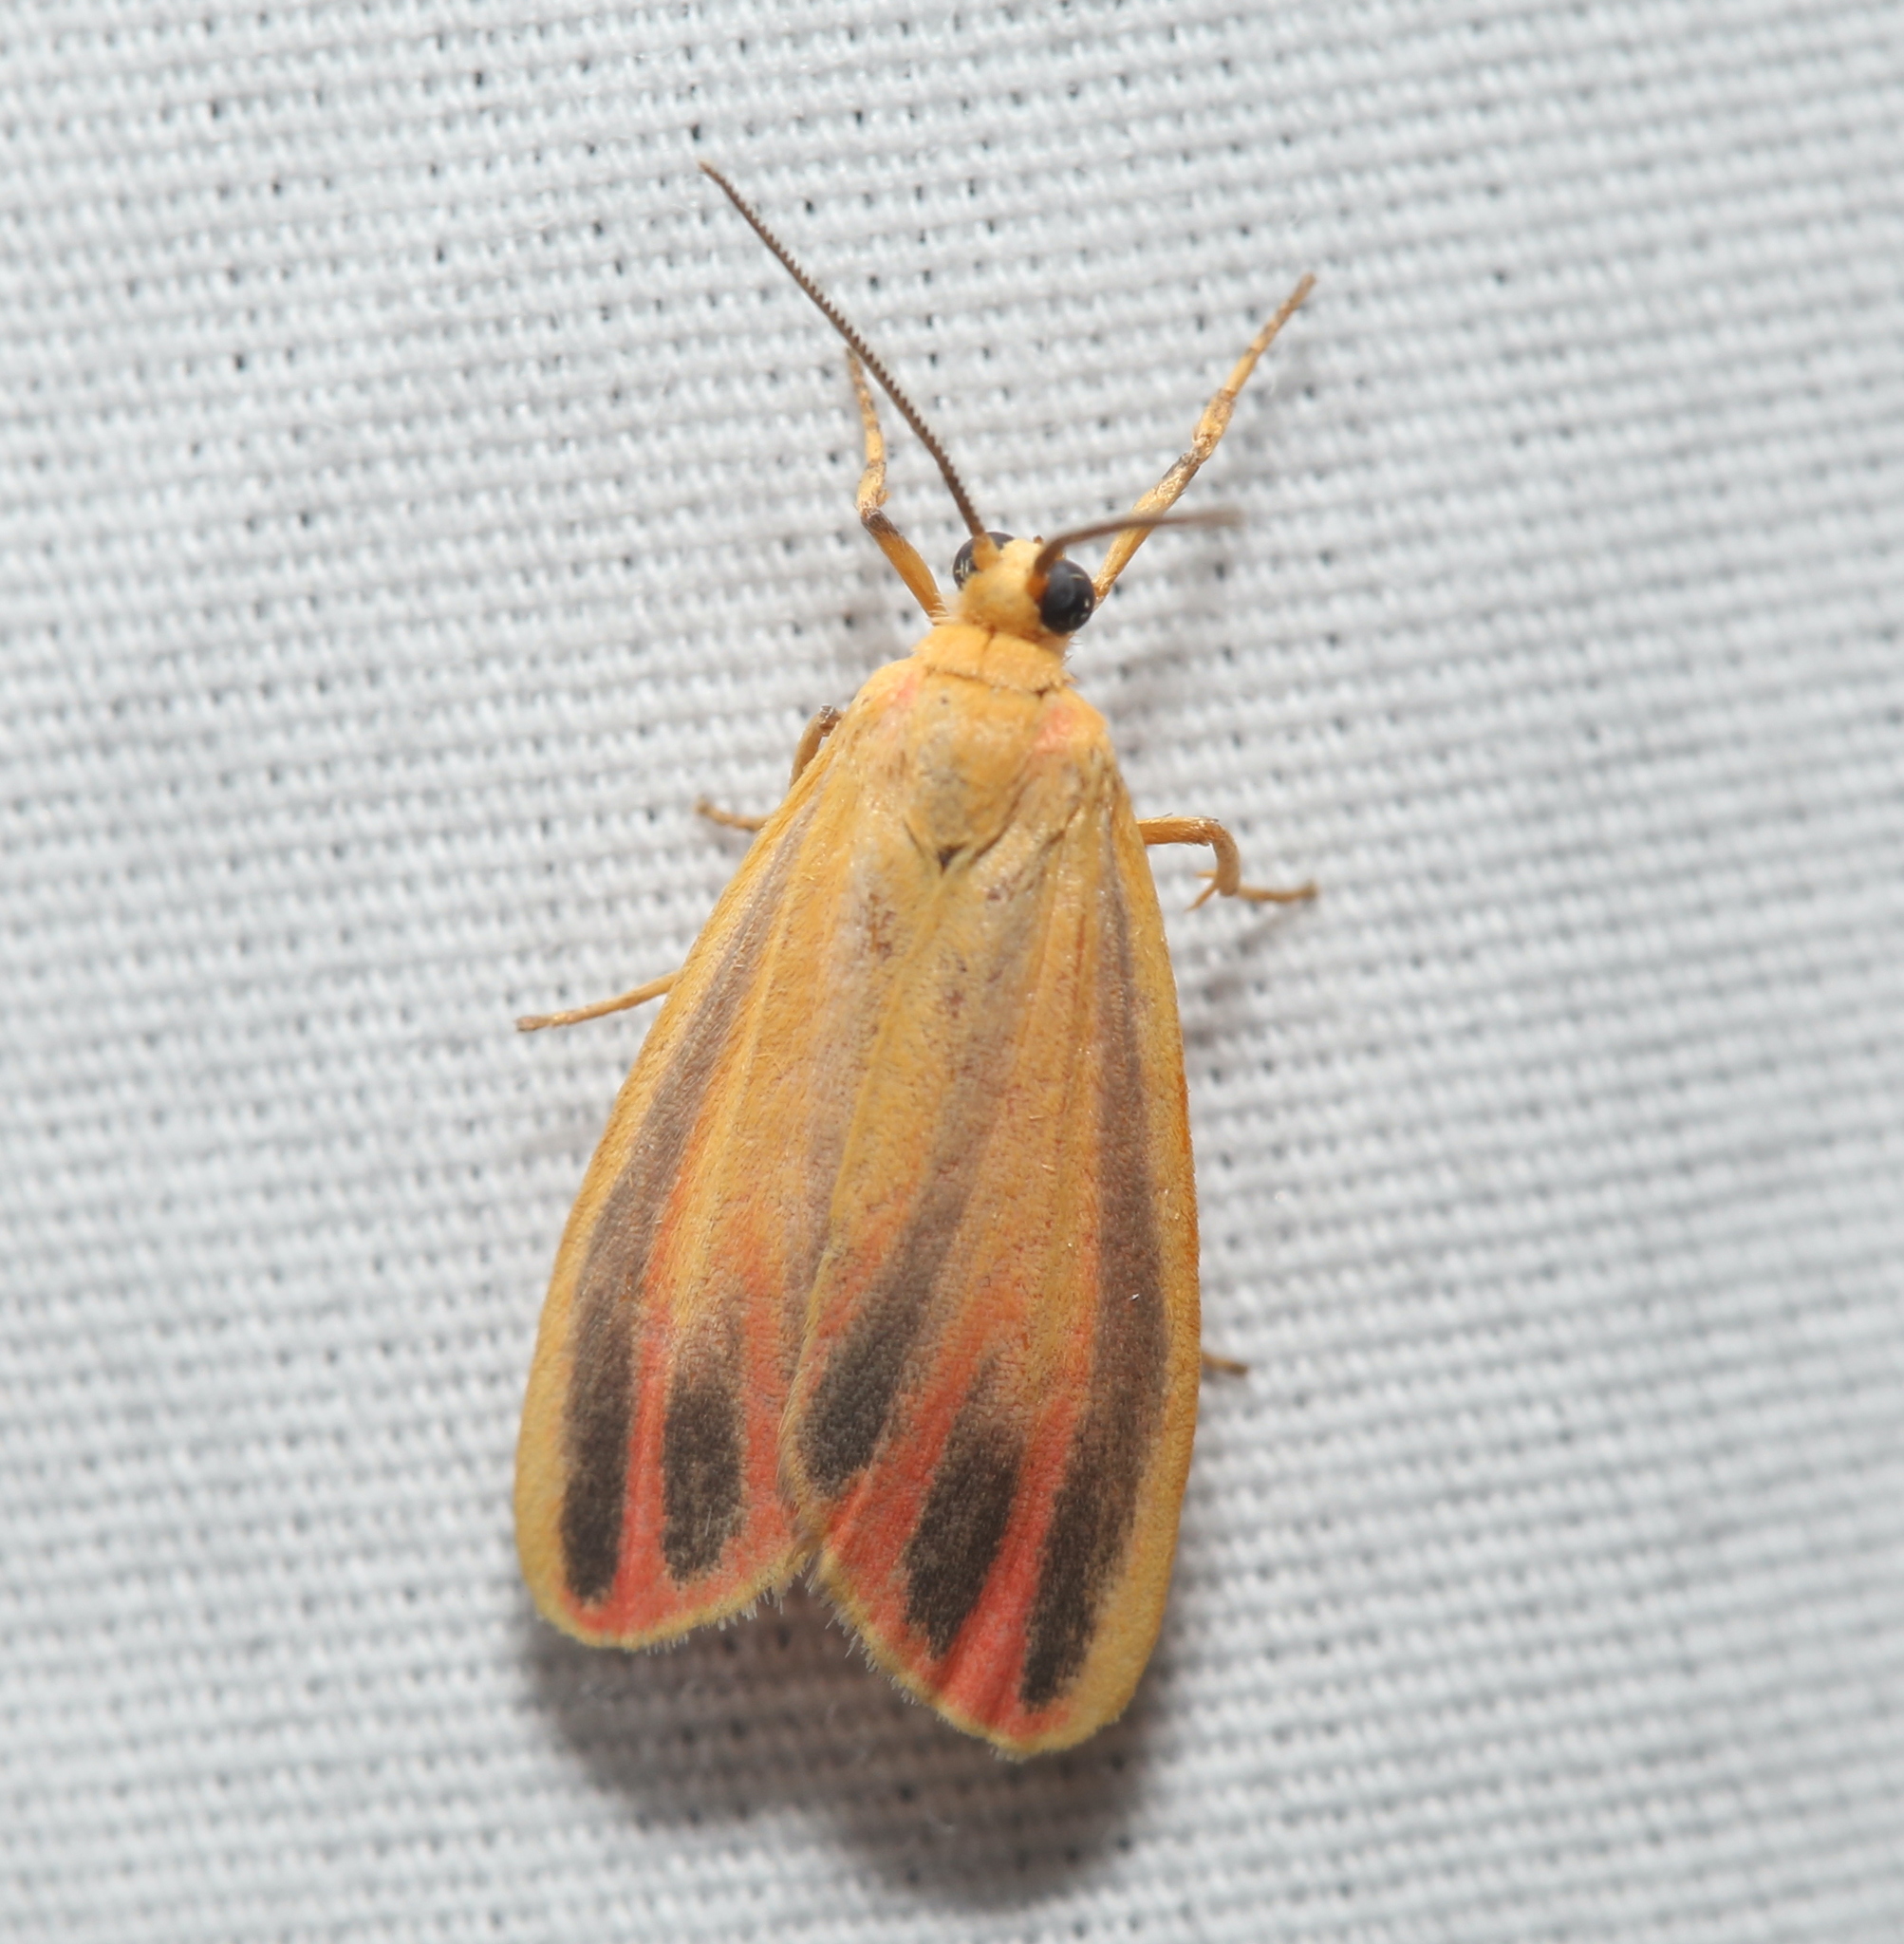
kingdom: Animalia
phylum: Arthropoda
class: Insecta
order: Lepidoptera
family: Erebidae
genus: Hypoprepia
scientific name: Hypoprepia fucosa
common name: Painted lichen moth
